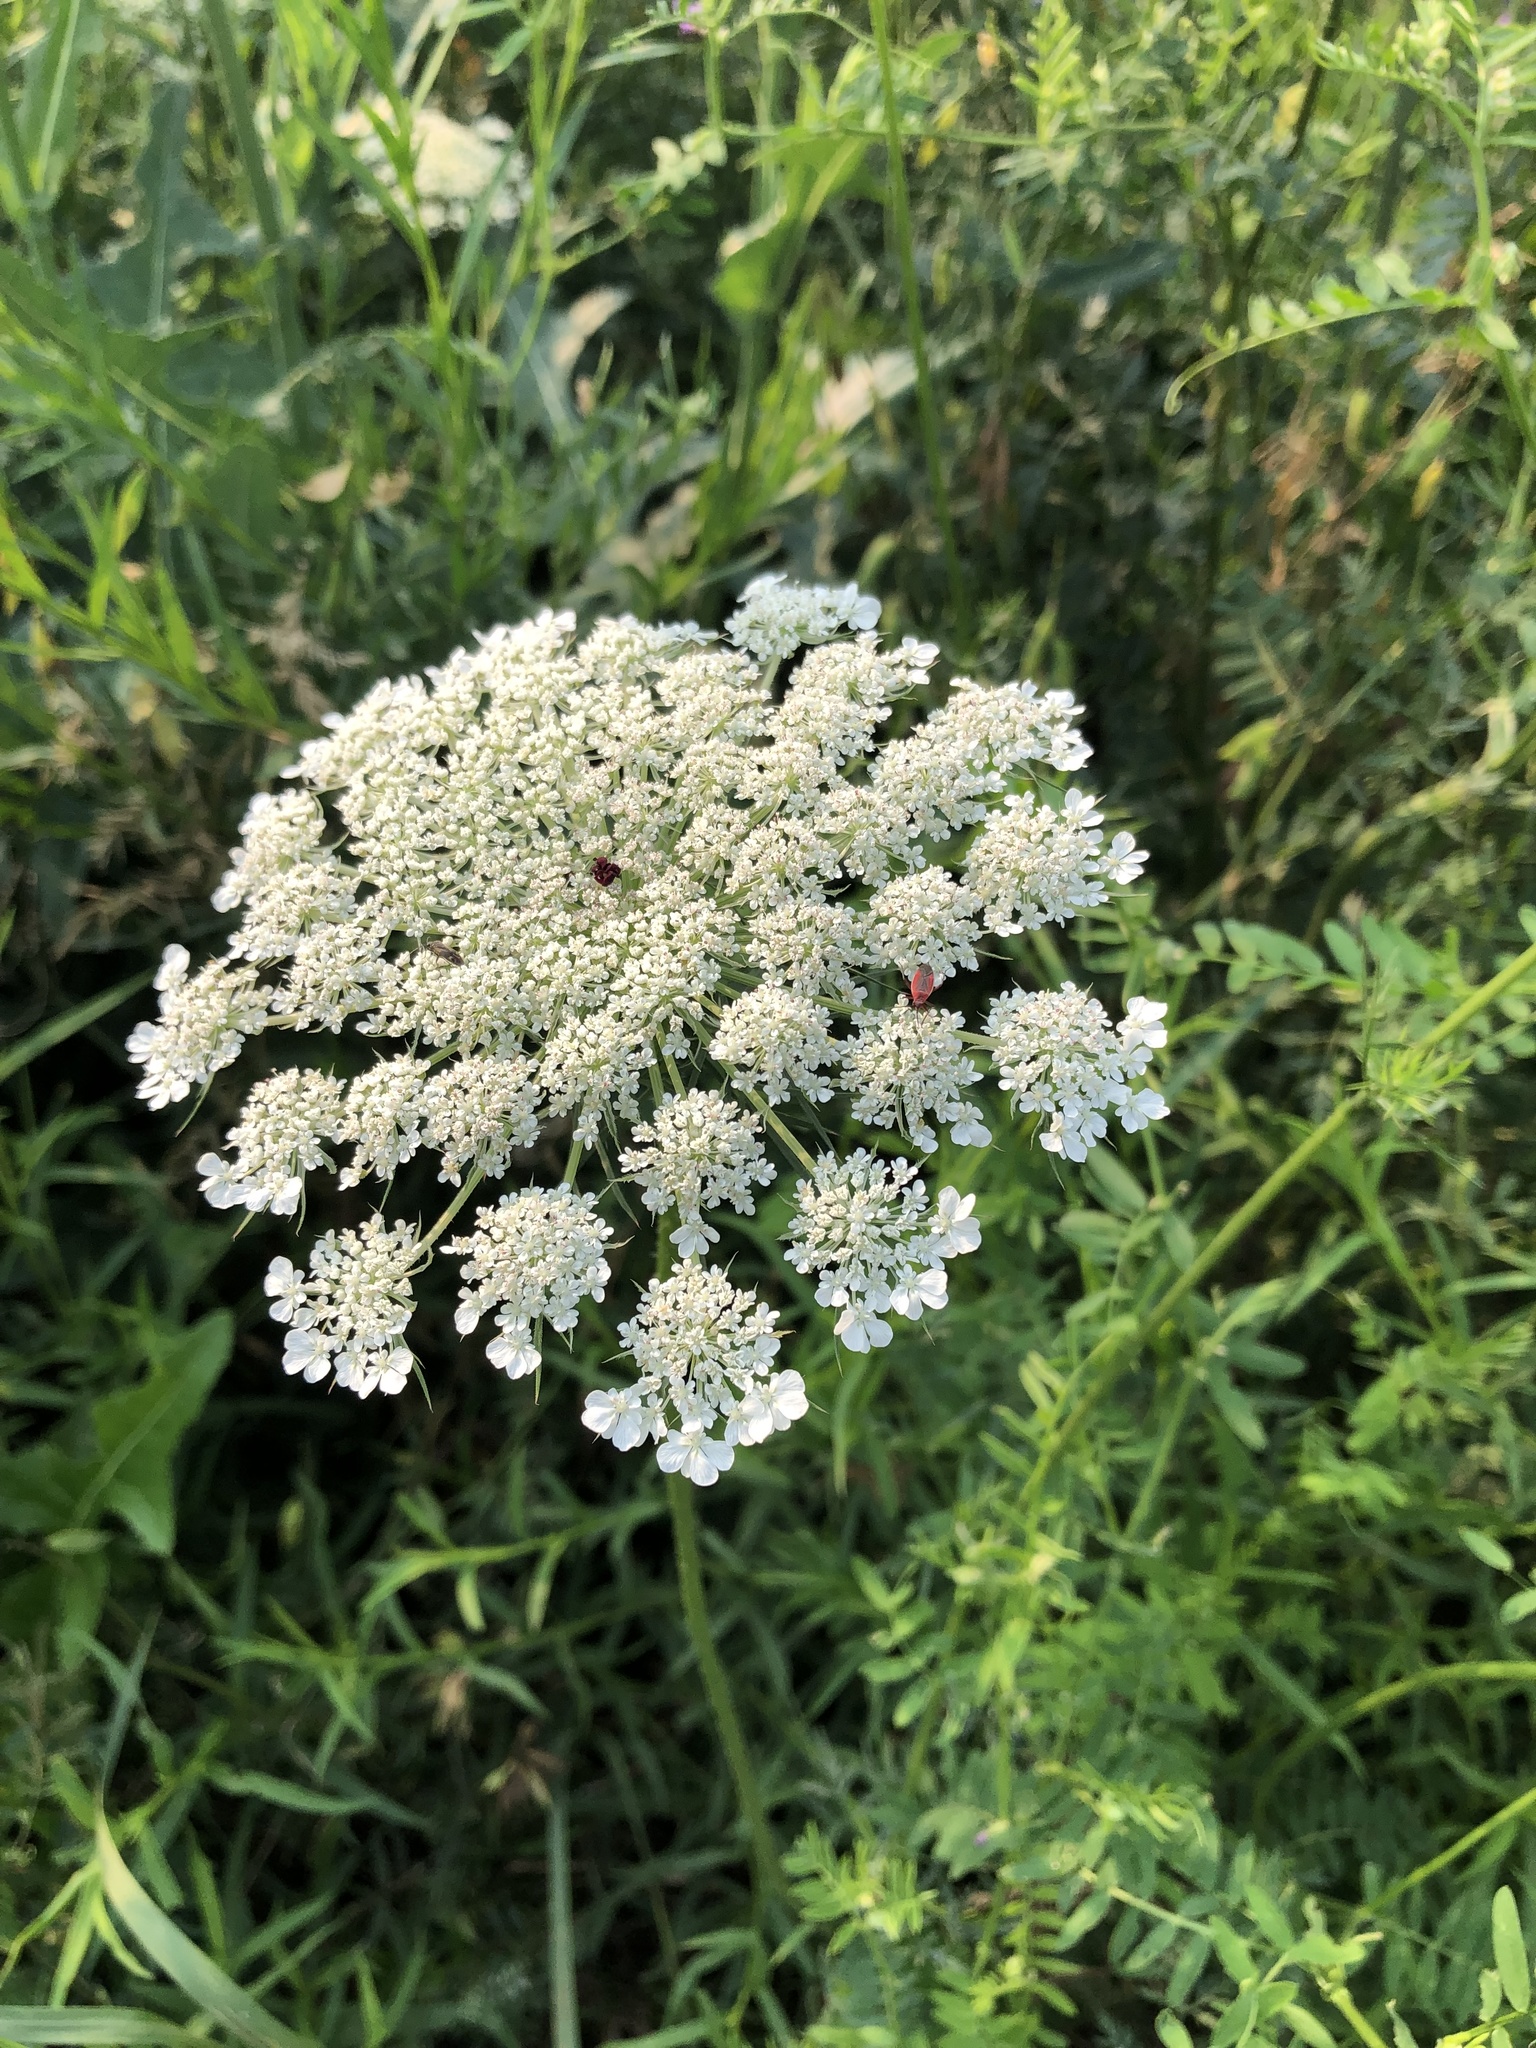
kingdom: Plantae
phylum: Tracheophyta
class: Magnoliopsida
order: Apiales
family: Apiaceae
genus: Daucus
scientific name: Daucus carota
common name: Wild carrot
